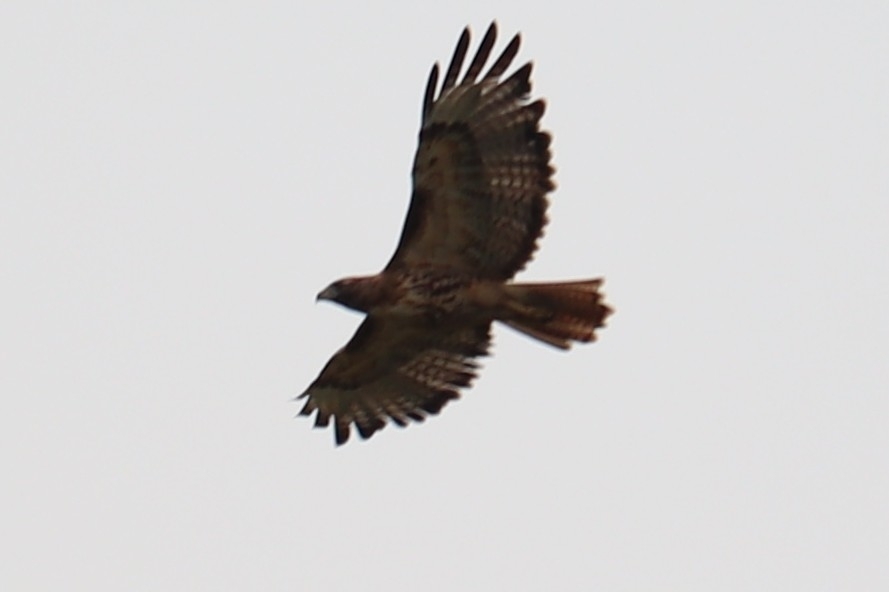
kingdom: Animalia
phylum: Chordata
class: Aves
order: Accipitriformes
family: Accipitridae
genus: Buteo
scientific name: Buteo jamaicensis
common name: Red-tailed hawk
